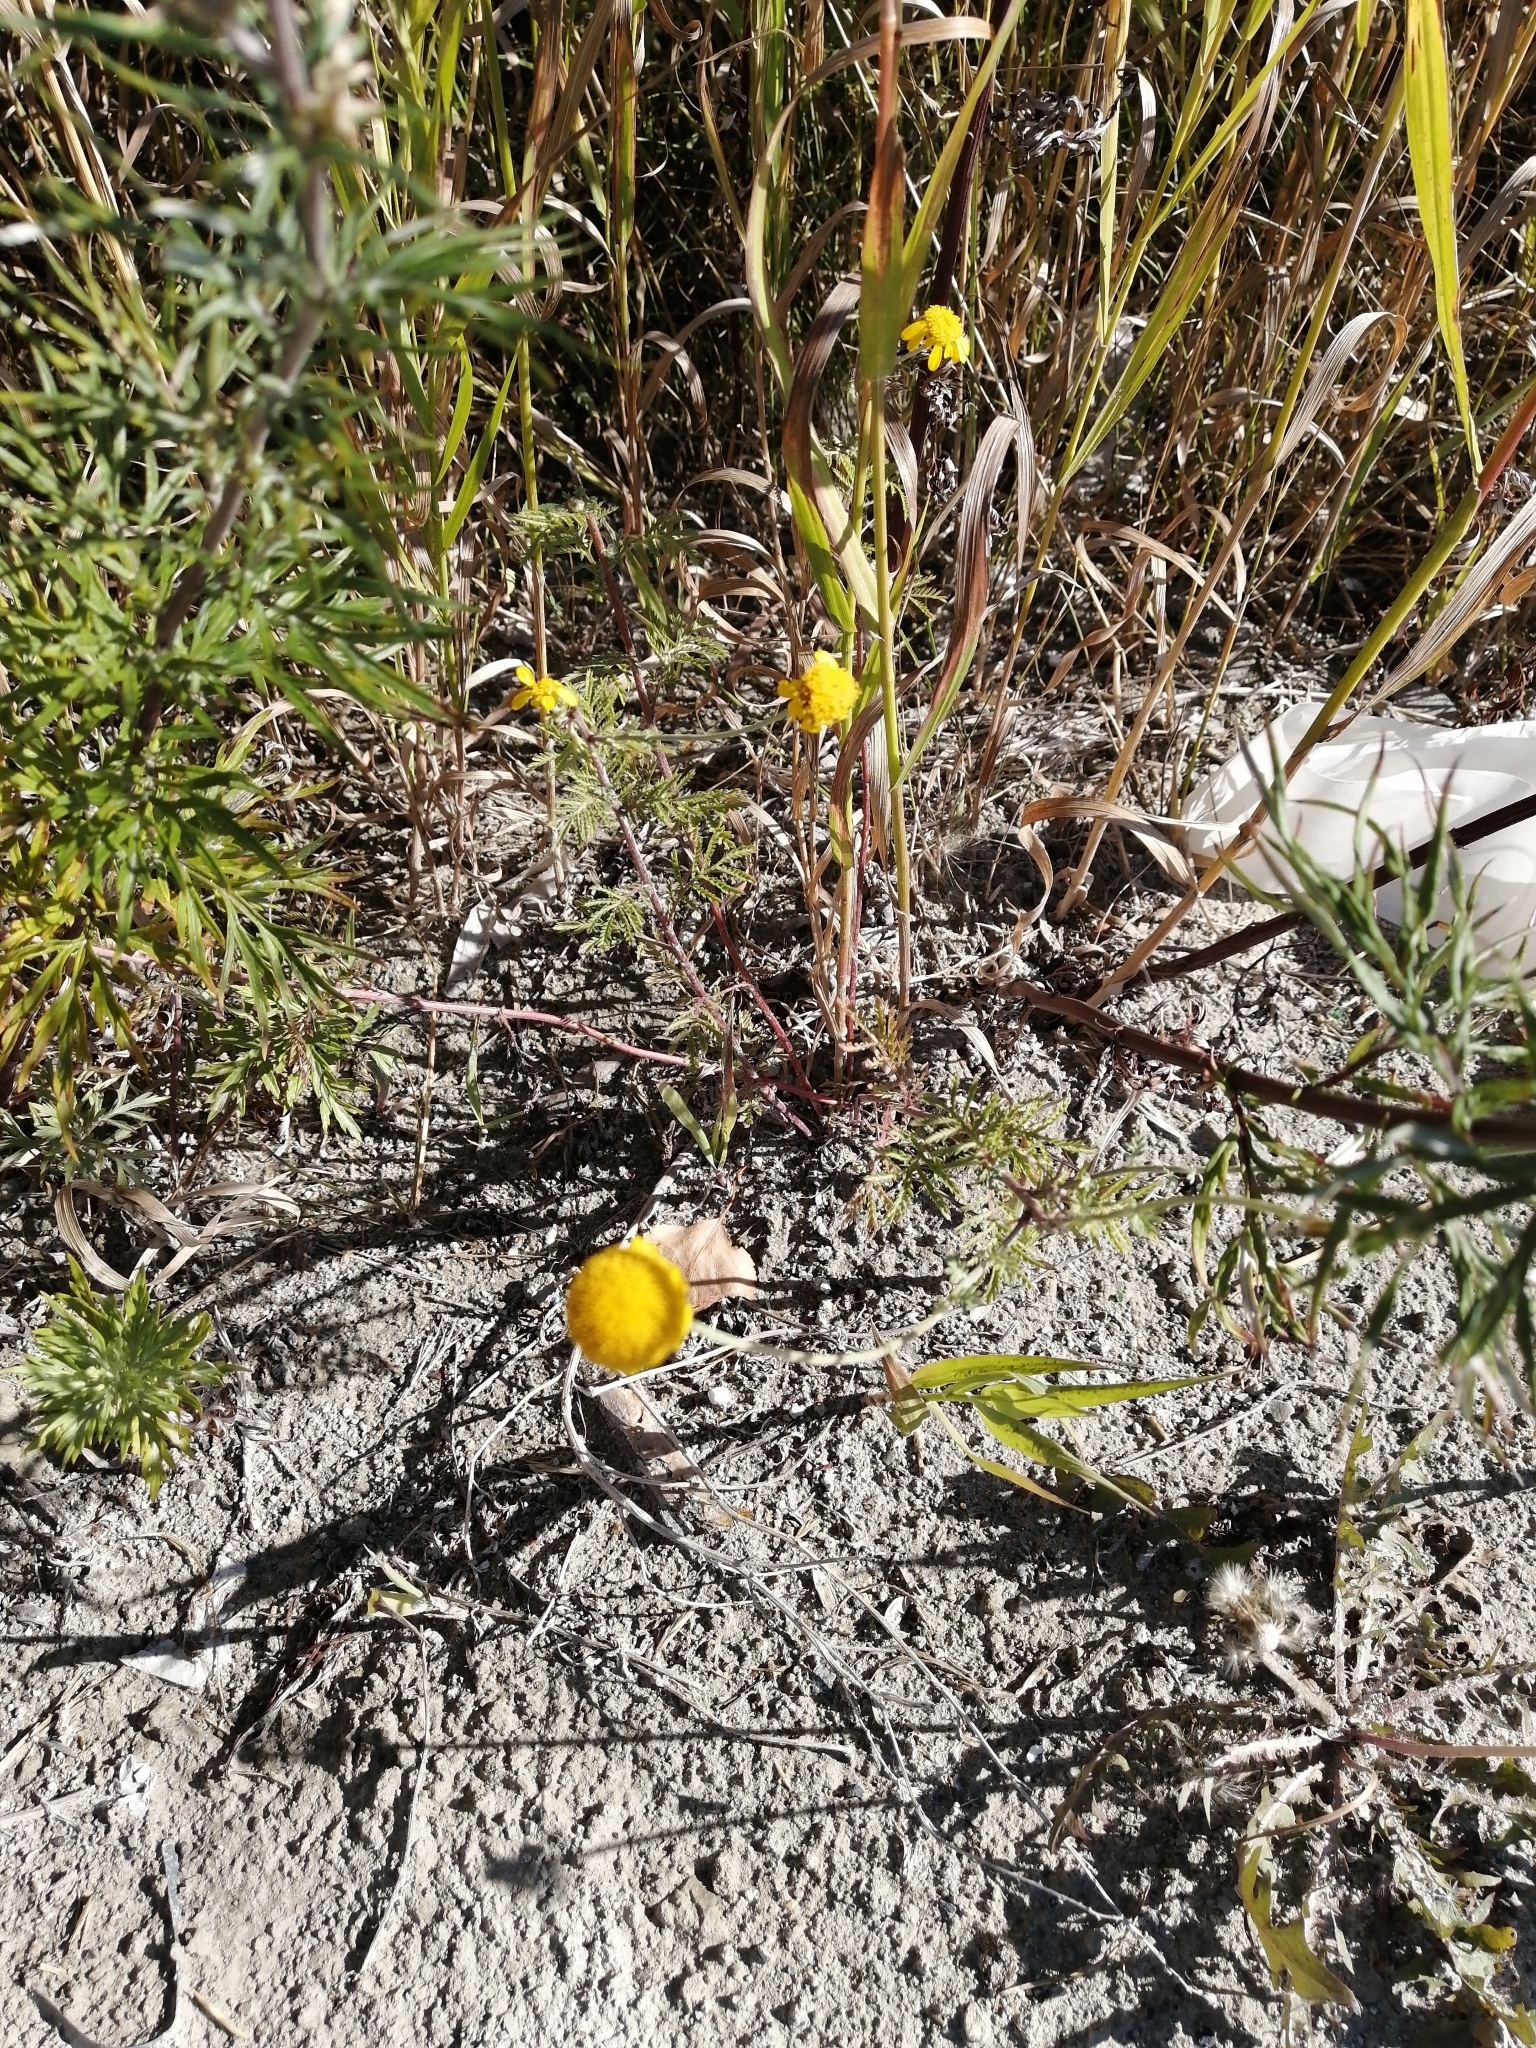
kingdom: Plantae
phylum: Tracheophyta
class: Magnoliopsida
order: Asterales
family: Asteraceae
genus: Cota
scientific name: Cota tinctoria
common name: Golden chamomile
